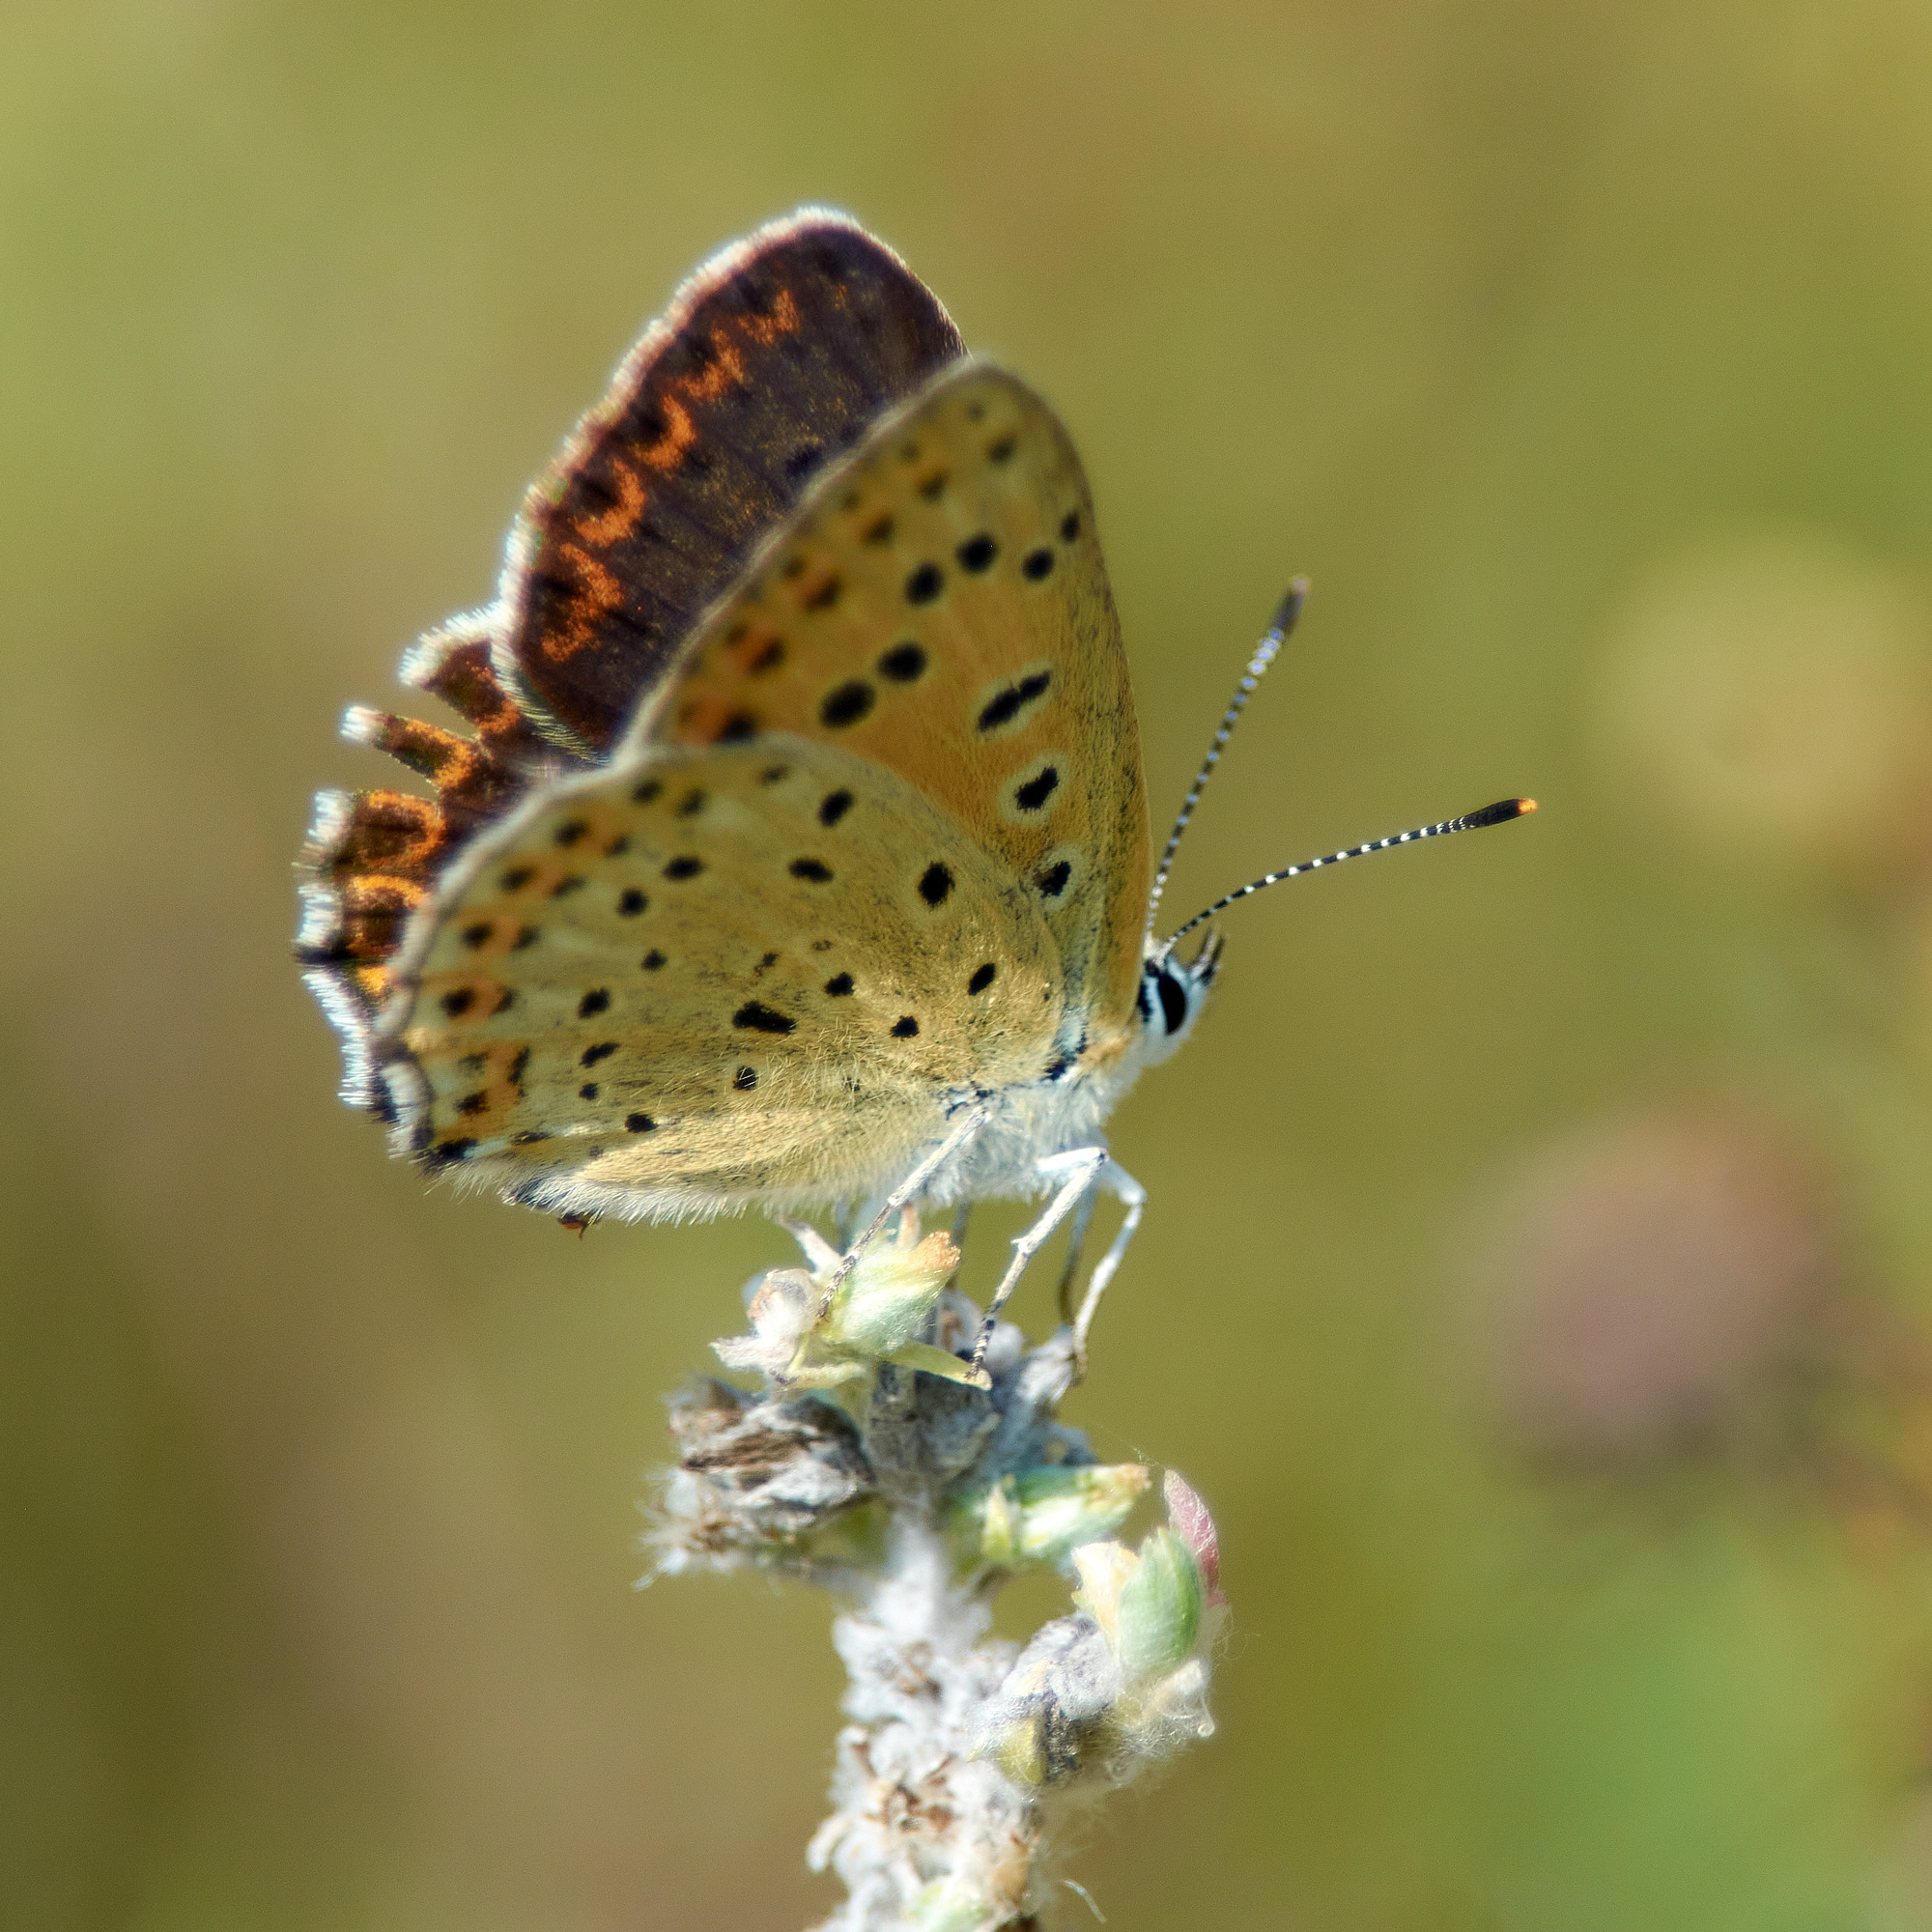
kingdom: Animalia
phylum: Arthropoda
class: Insecta
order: Lepidoptera
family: Lycaenidae
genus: Loweia
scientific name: Loweia tityrus
